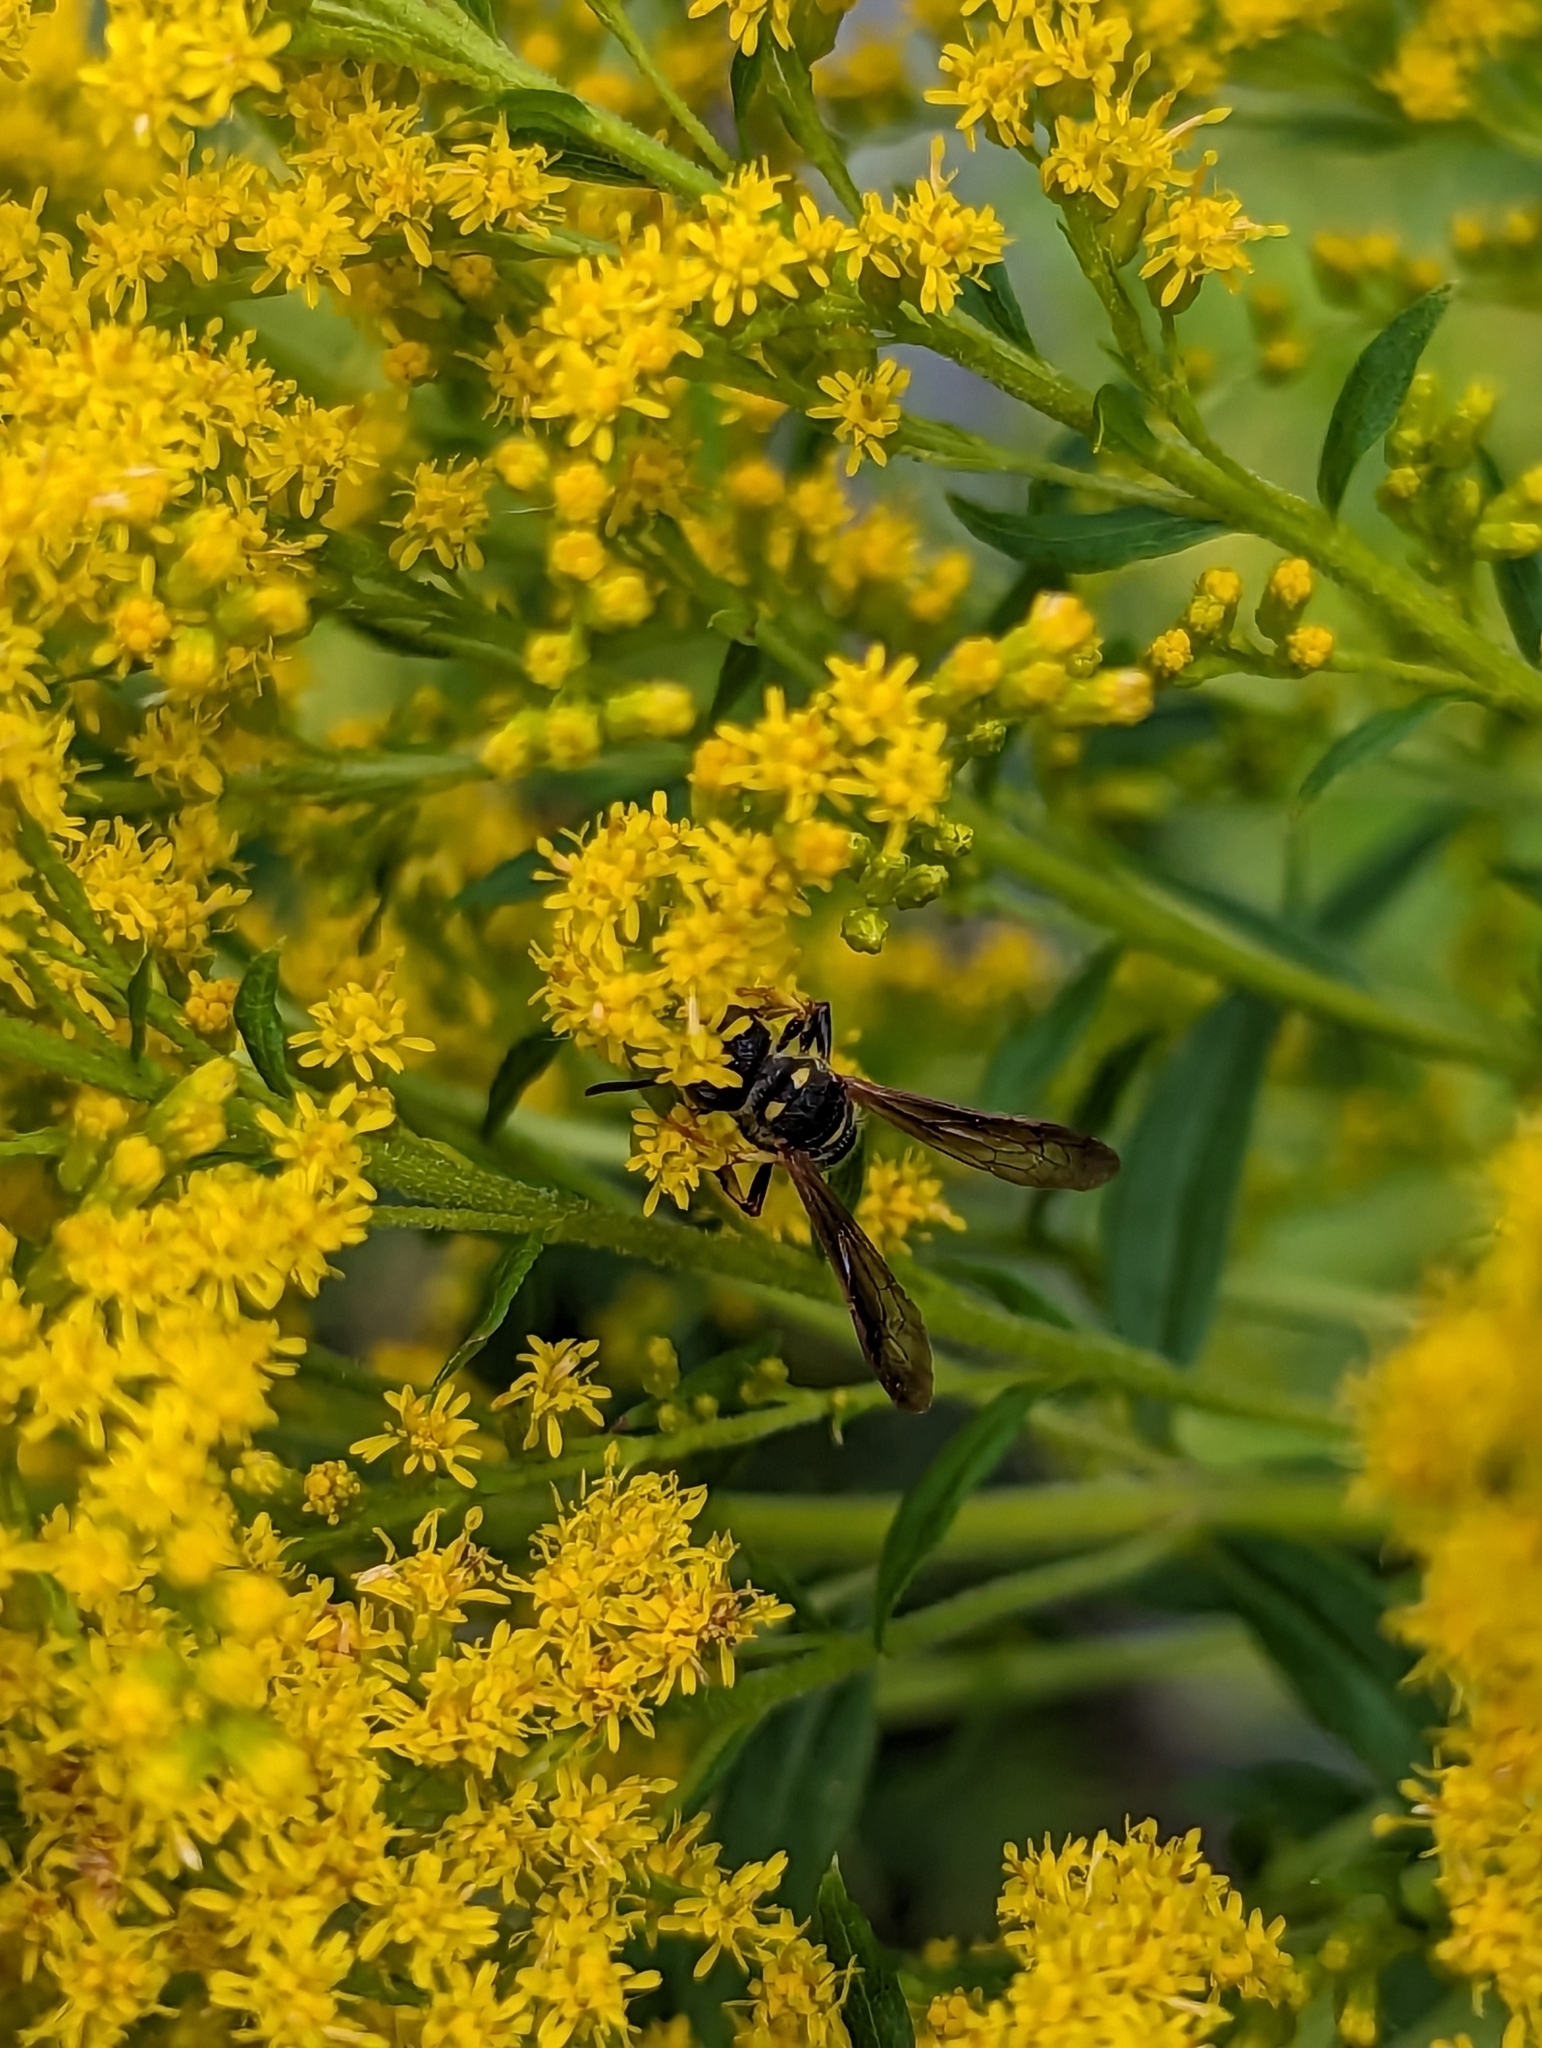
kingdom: Animalia
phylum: Arthropoda
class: Insecta
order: Hymenoptera
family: Crabronidae
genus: Cerceris
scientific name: Cerceris atramontensis
